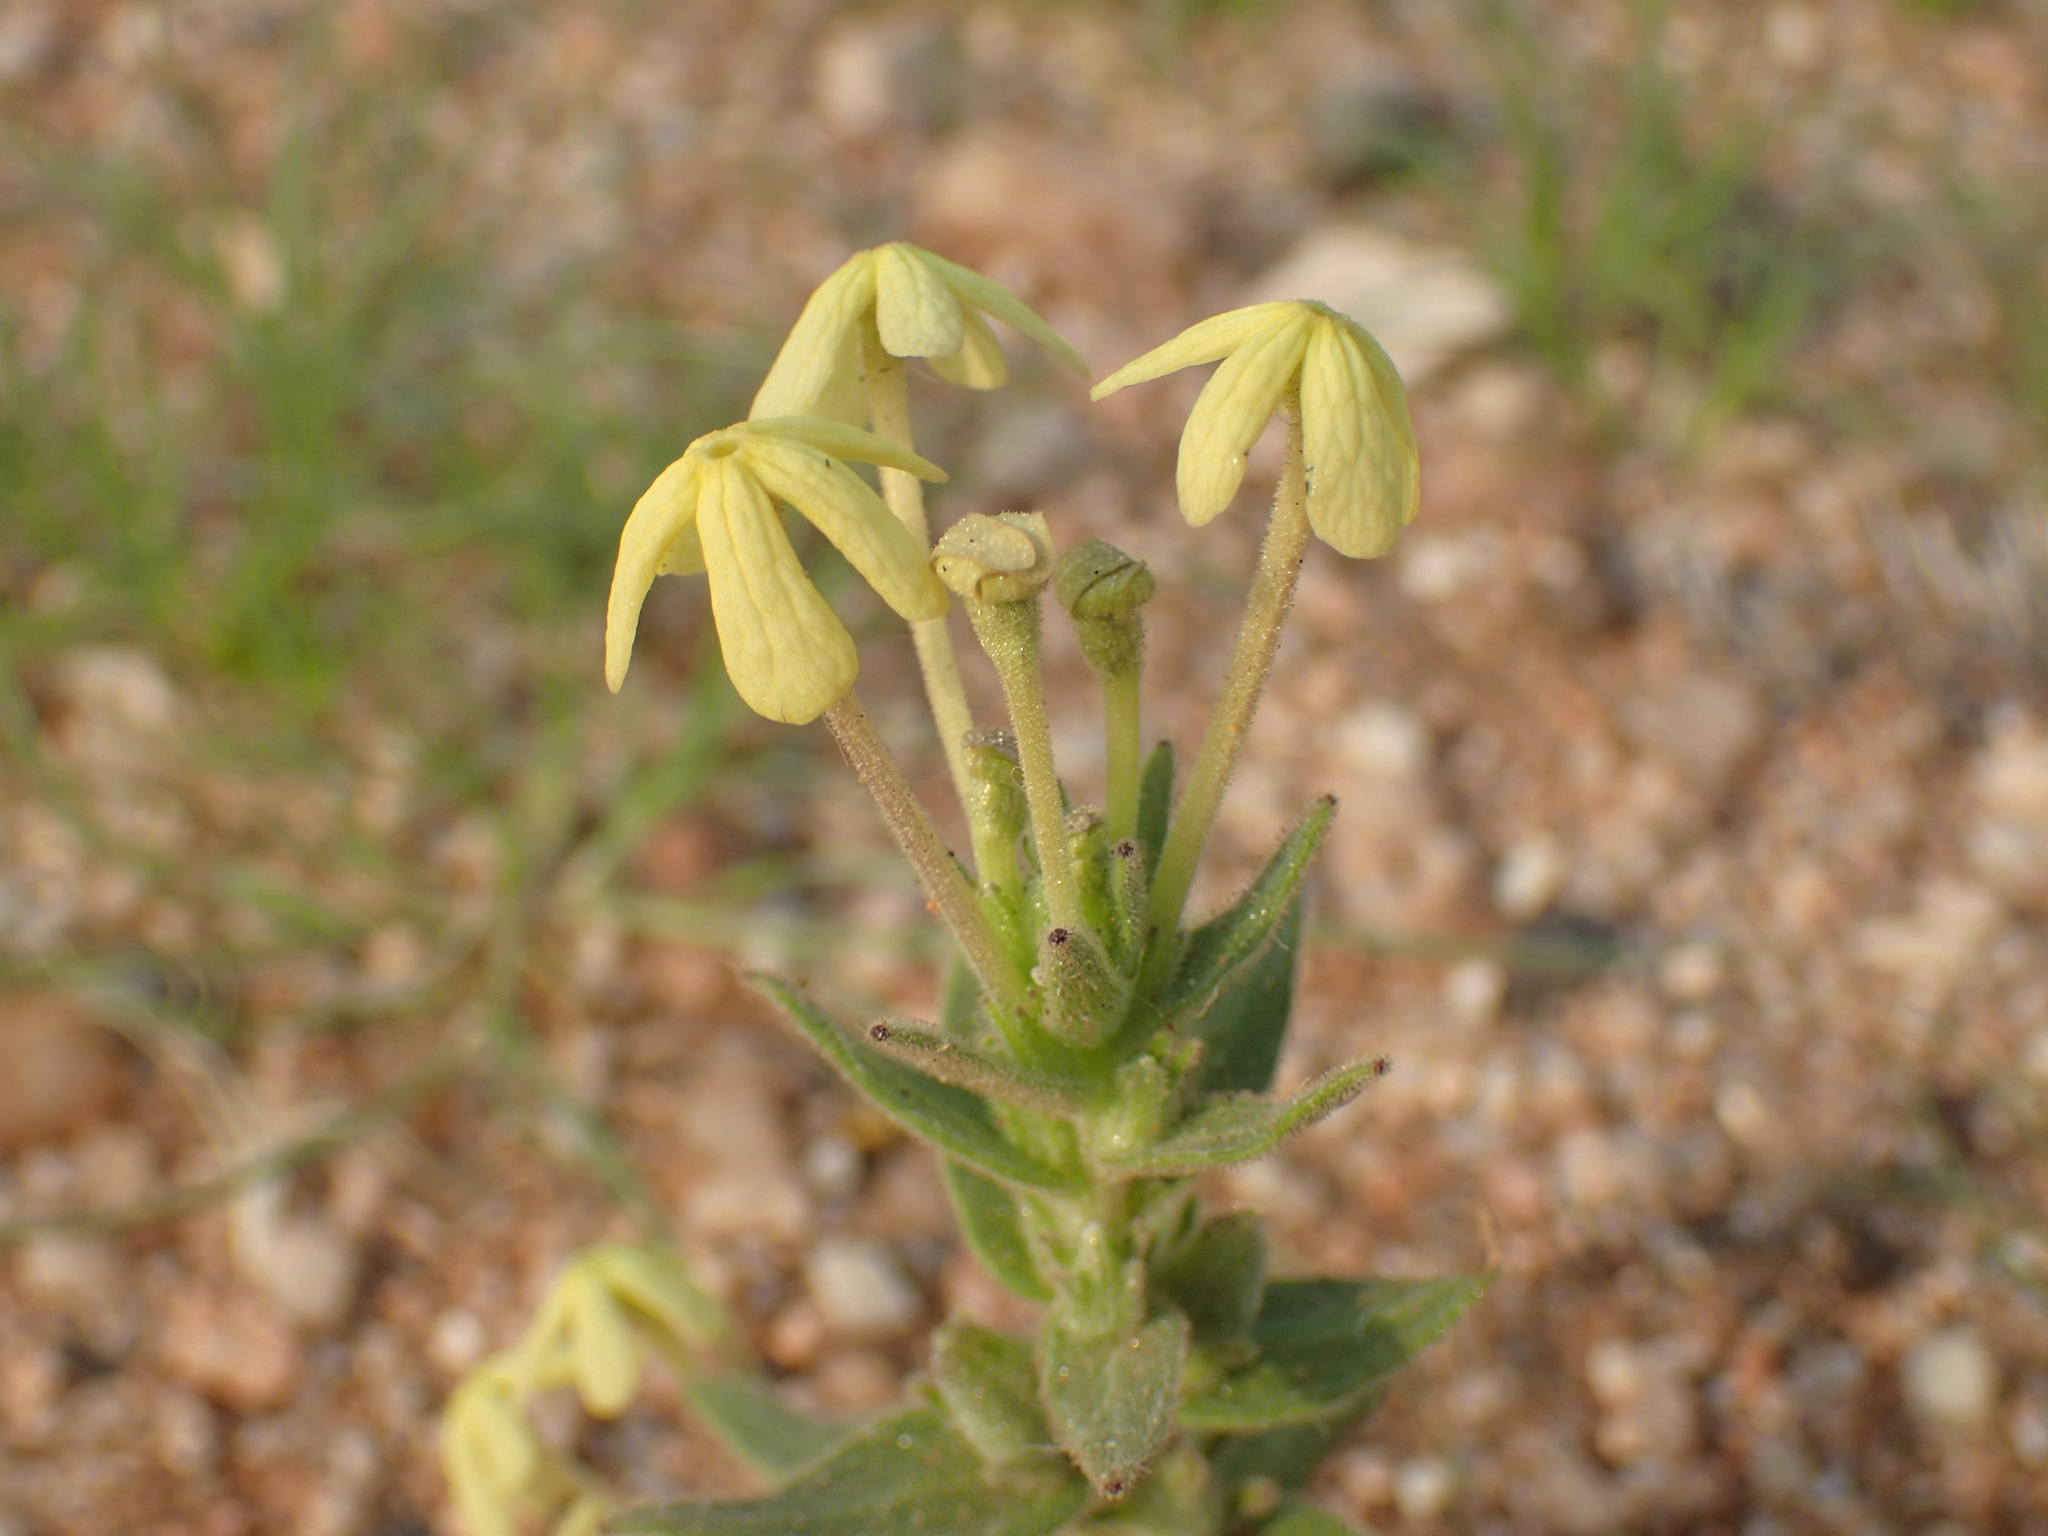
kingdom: Plantae
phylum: Tracheophyta
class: Magnoliopsida
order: Lamiales
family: Scrophulariaceae
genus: Lyperia
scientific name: Lyperia tristis
